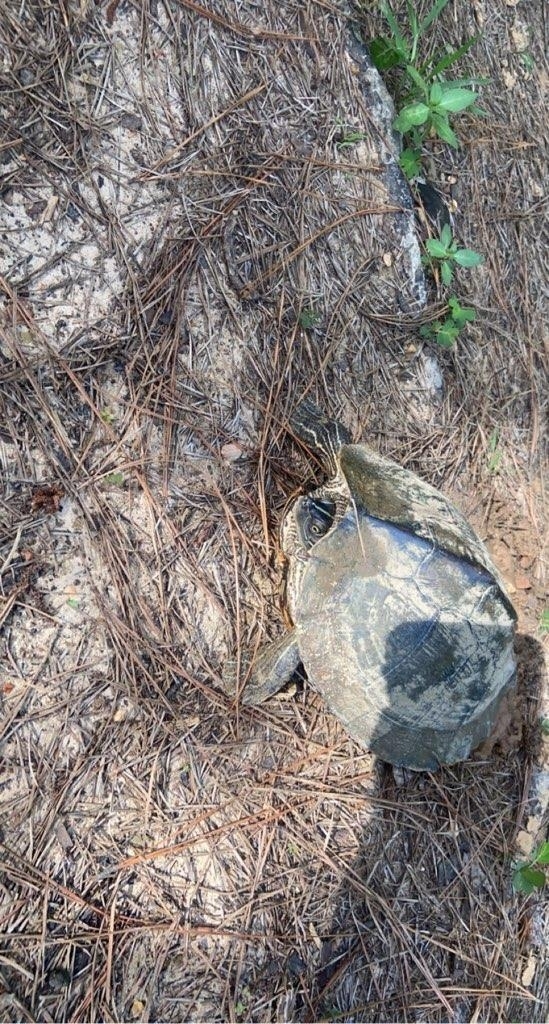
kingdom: Animalia
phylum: Chordata
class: Testudines
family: Emydidae
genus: Graptemys
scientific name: Graptemys pseudogeographica
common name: False map turtle
